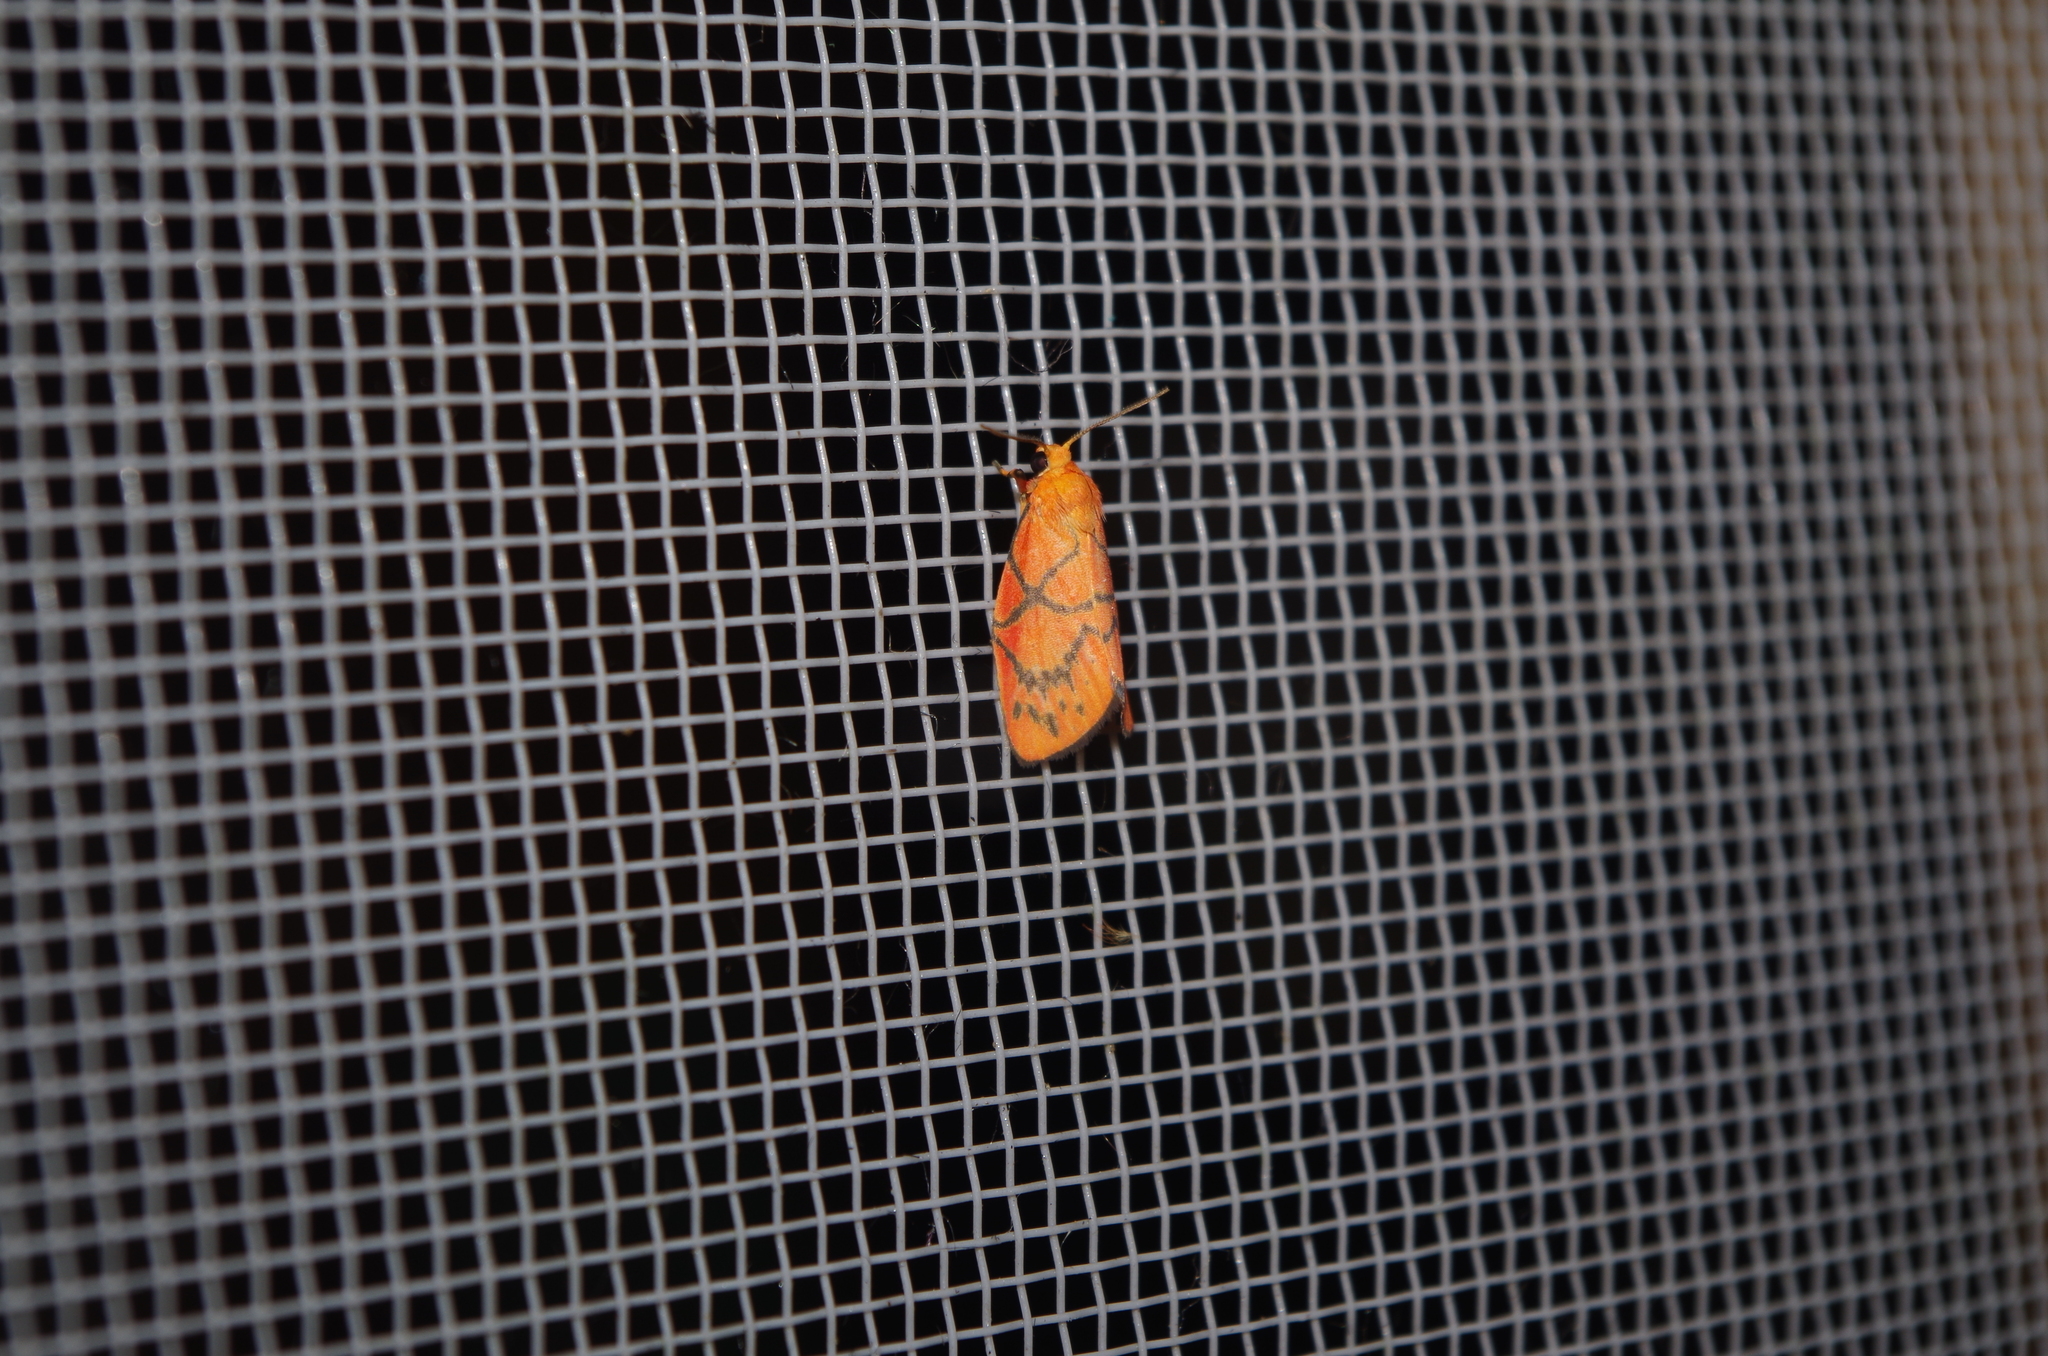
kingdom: Animalia
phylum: Arthropoda
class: Insecta
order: Lepidoptera
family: Erebidae
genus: Aberrasine
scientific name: Aberrasine aberrans
